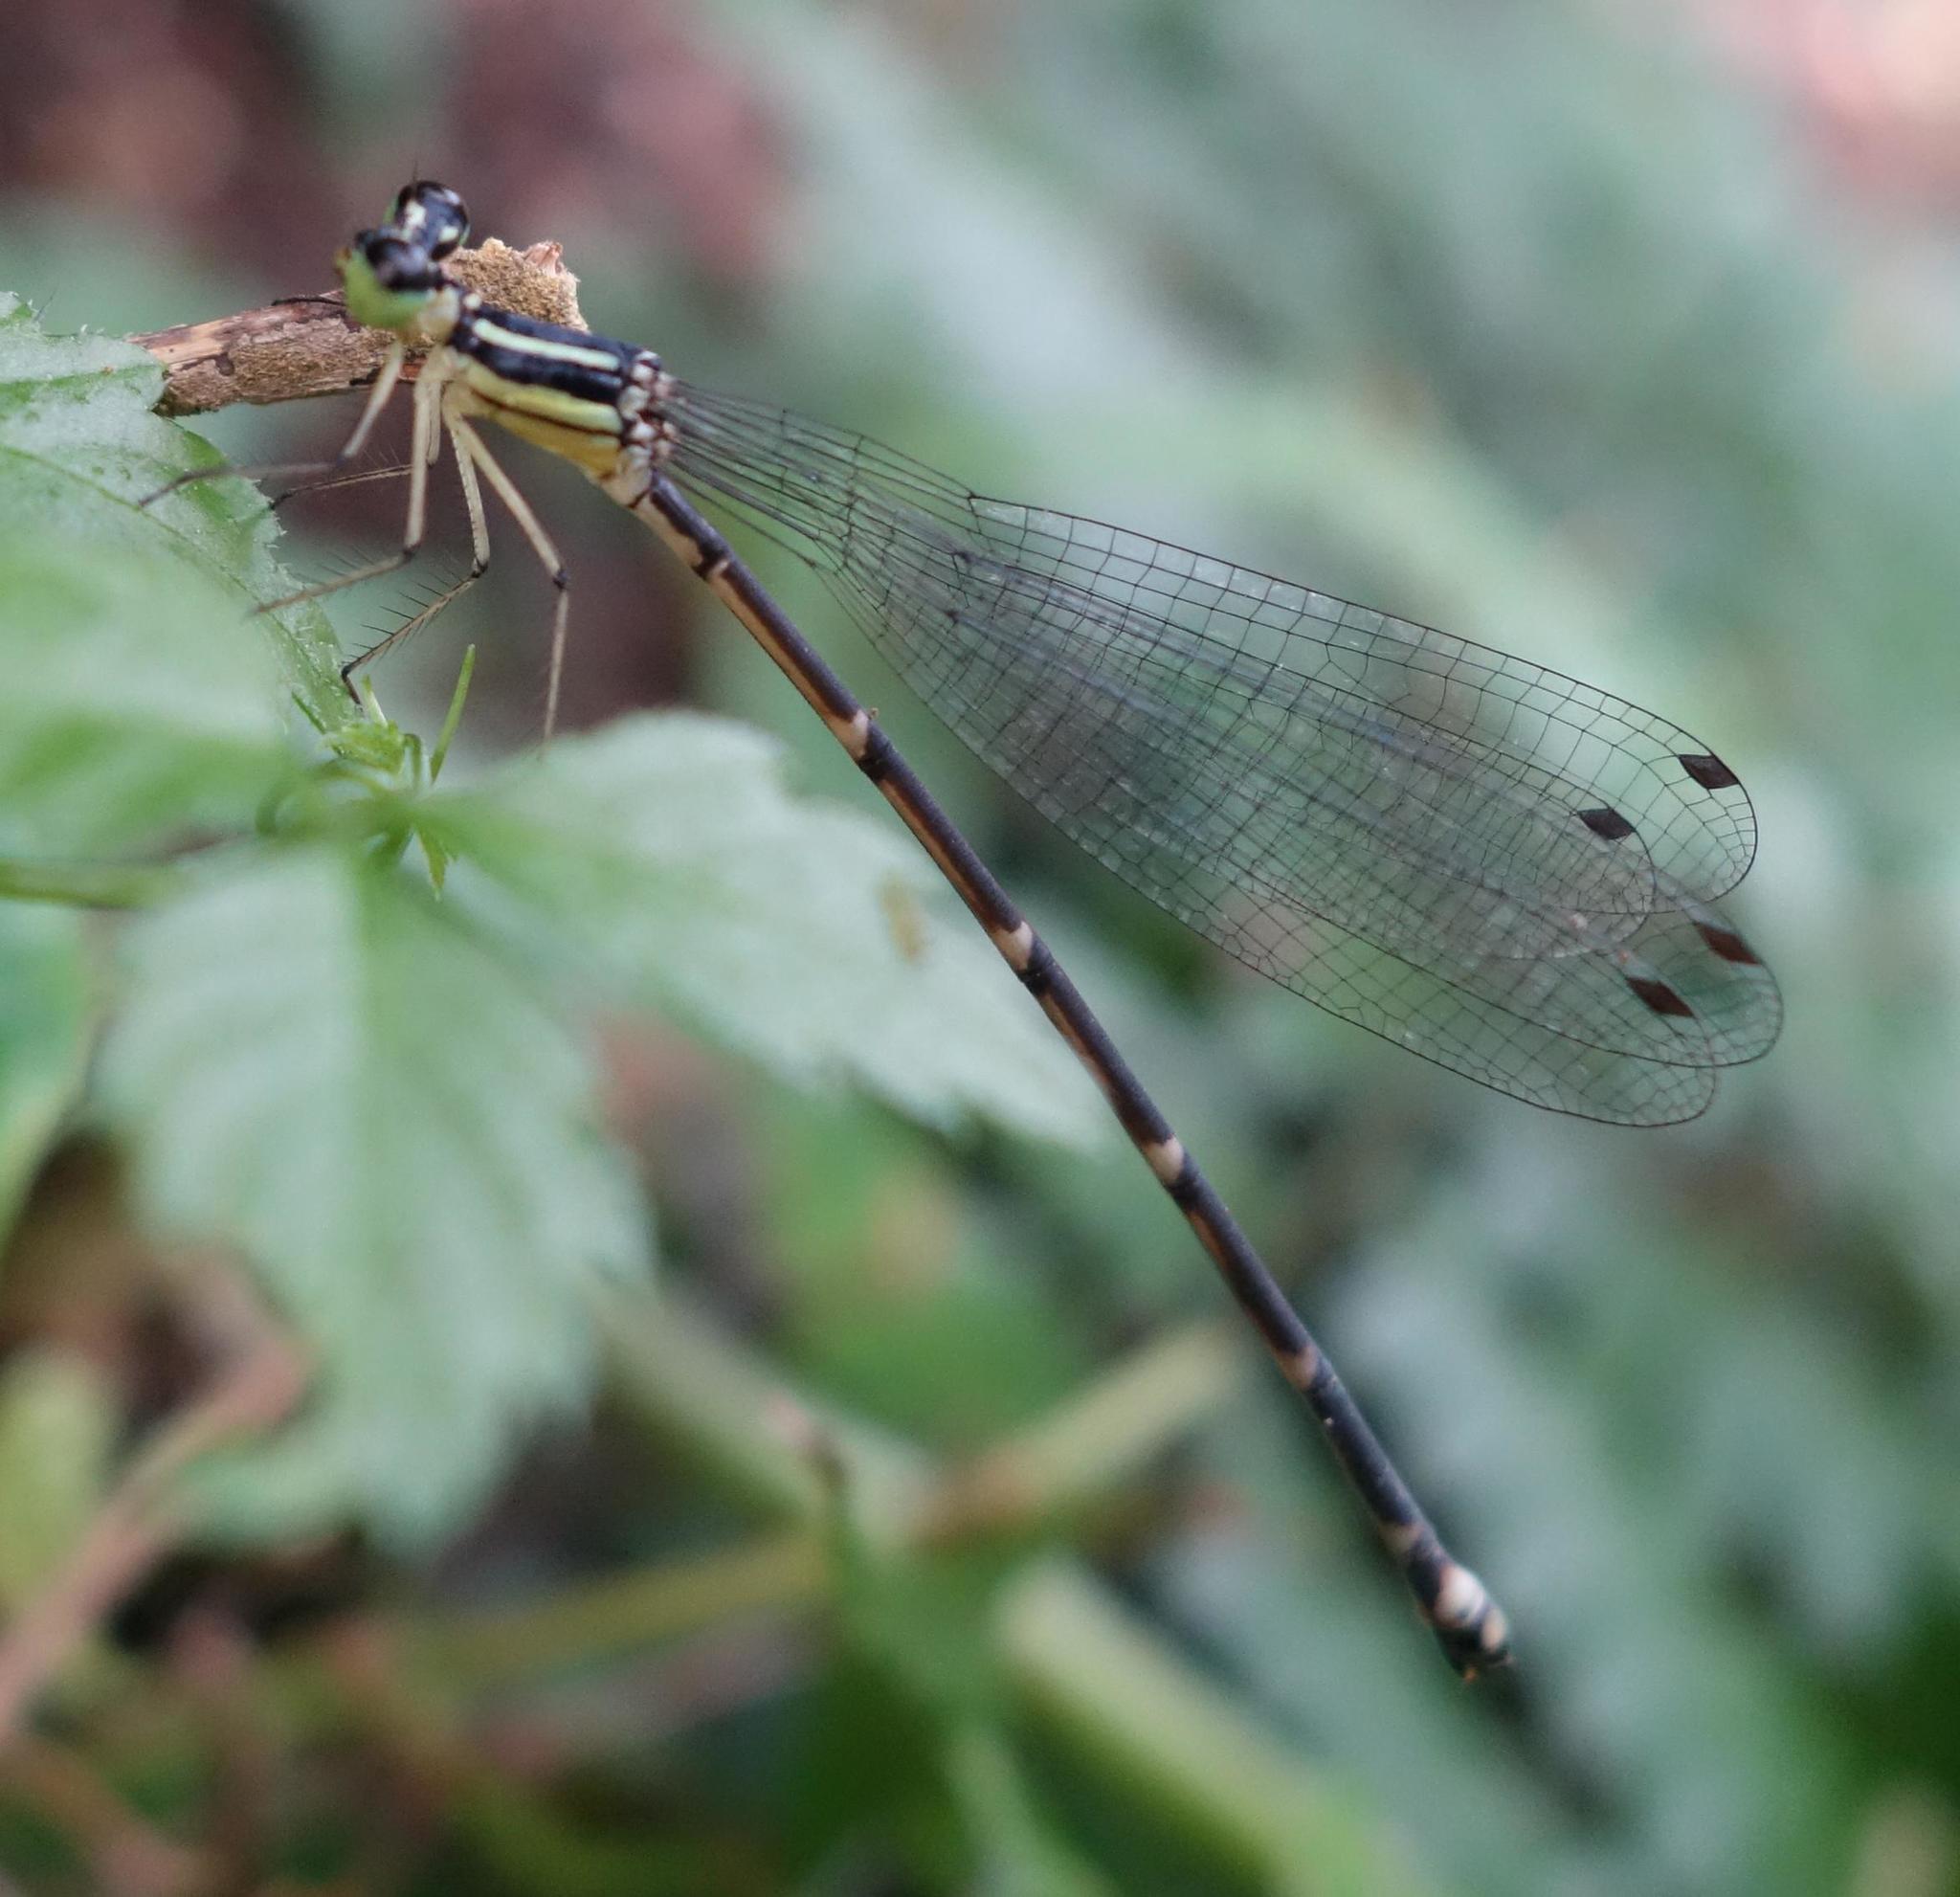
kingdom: Animalia
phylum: Arthropoda
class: Insecta
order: Odonata
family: Platycnemididae
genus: Coeliccia
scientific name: Coeliccia cyanomelas
